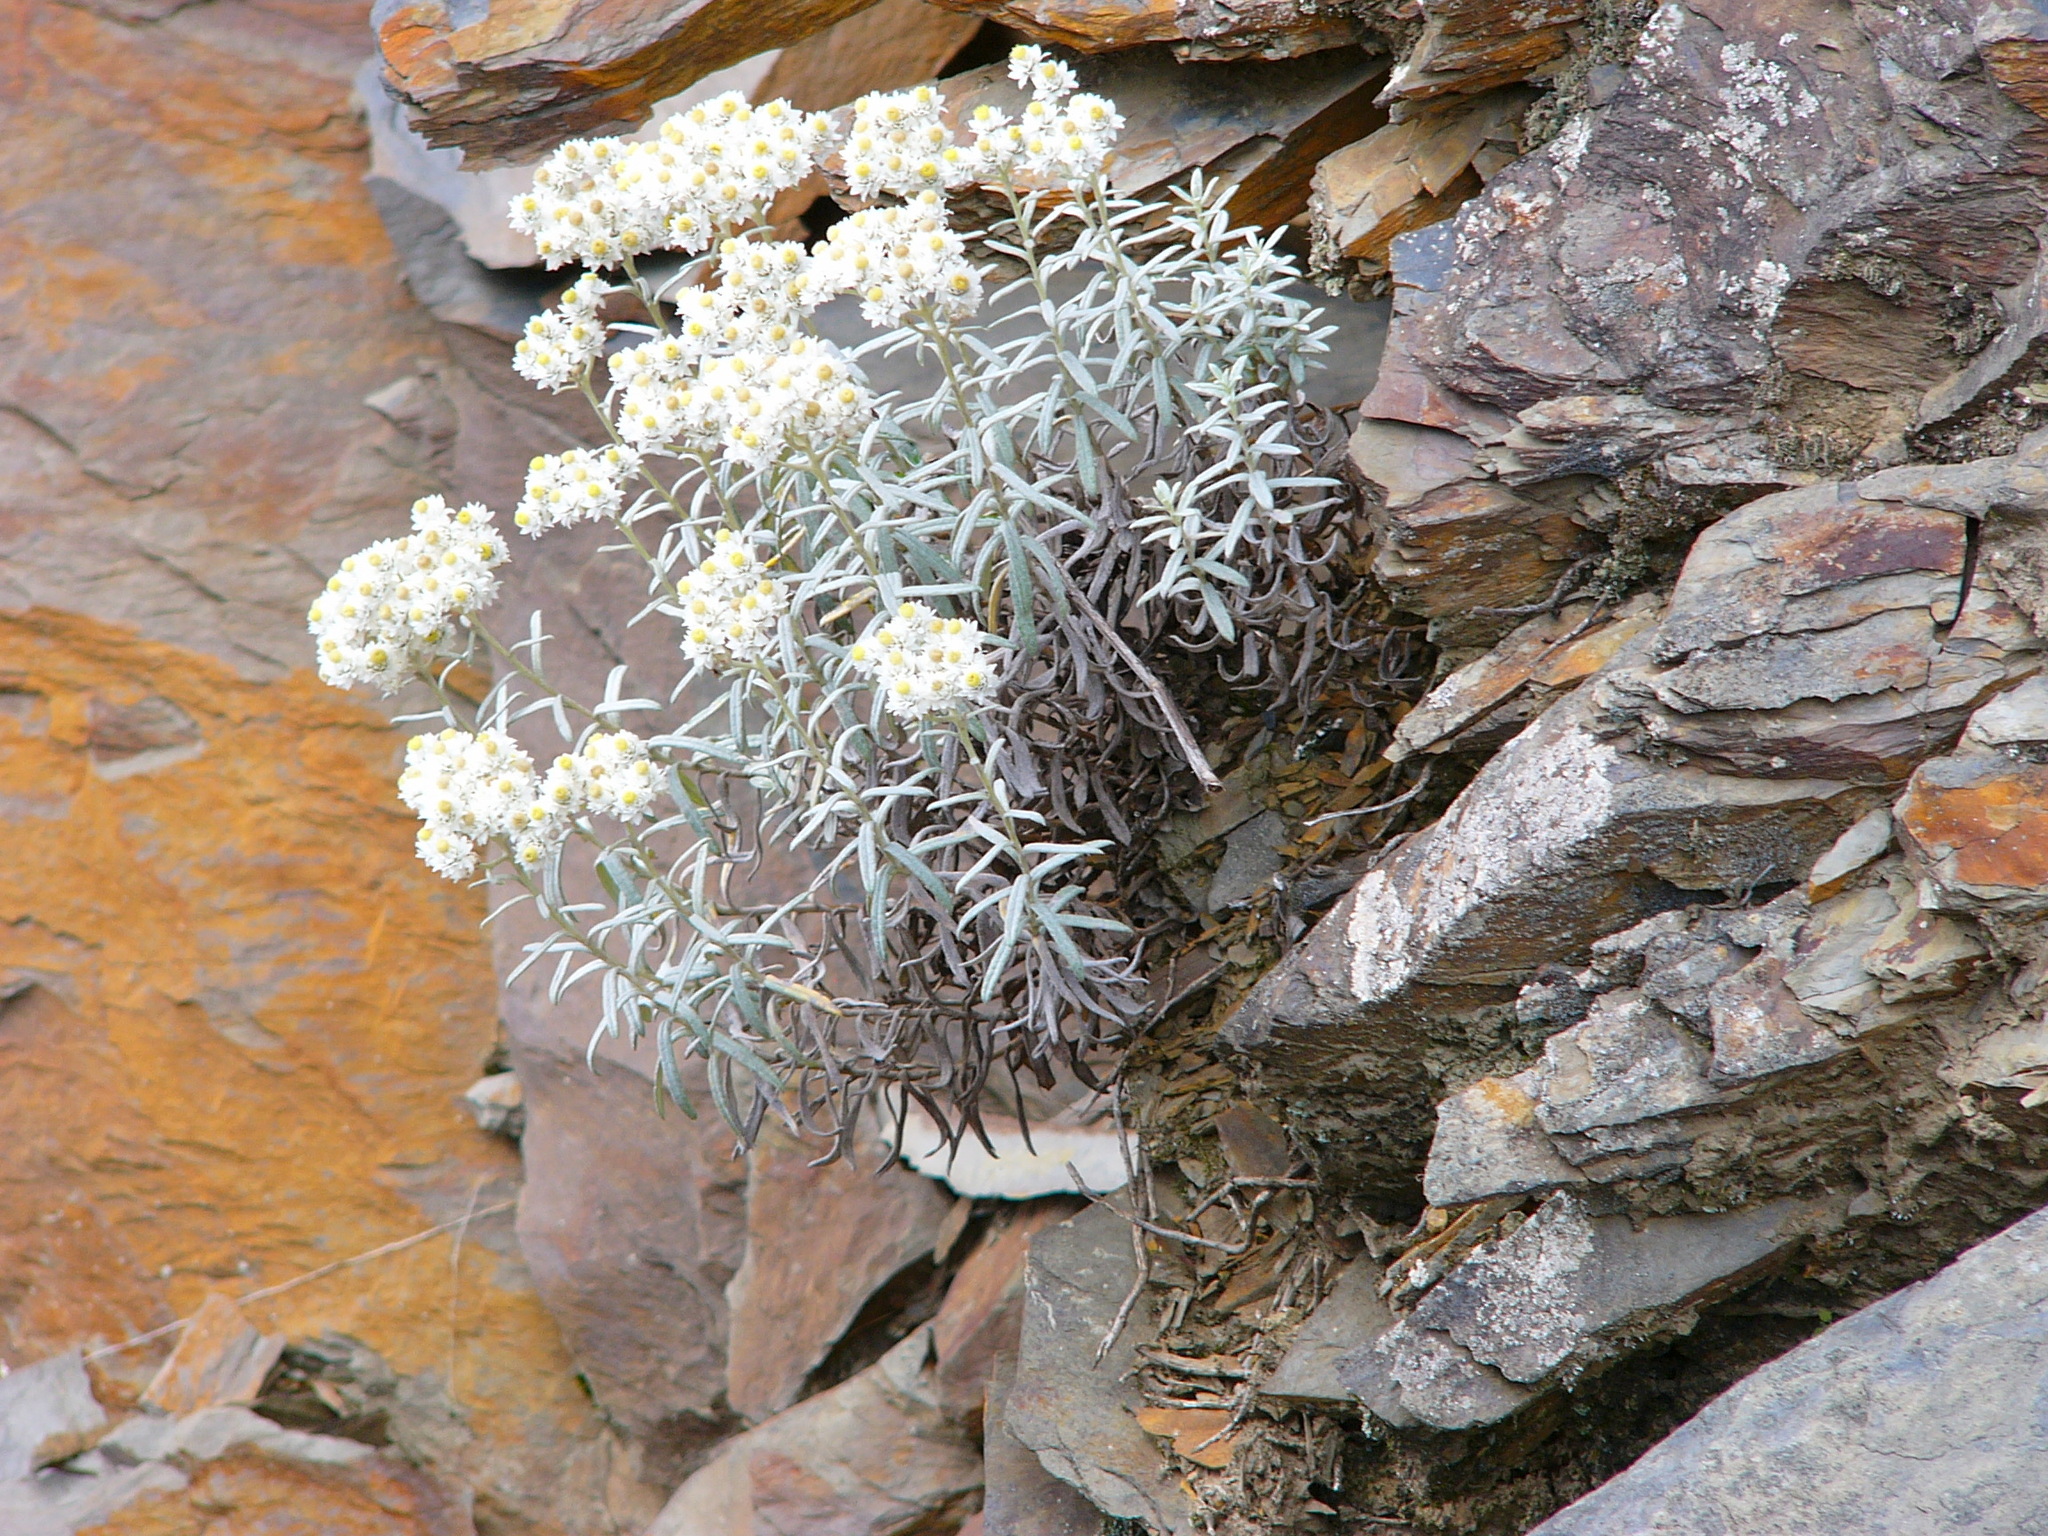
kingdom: Plantae
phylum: Tracheophyta
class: Magnoliopsida
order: Asterales
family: Asteraceae
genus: Anaphalis
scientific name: Anaphalis morrisonicola
